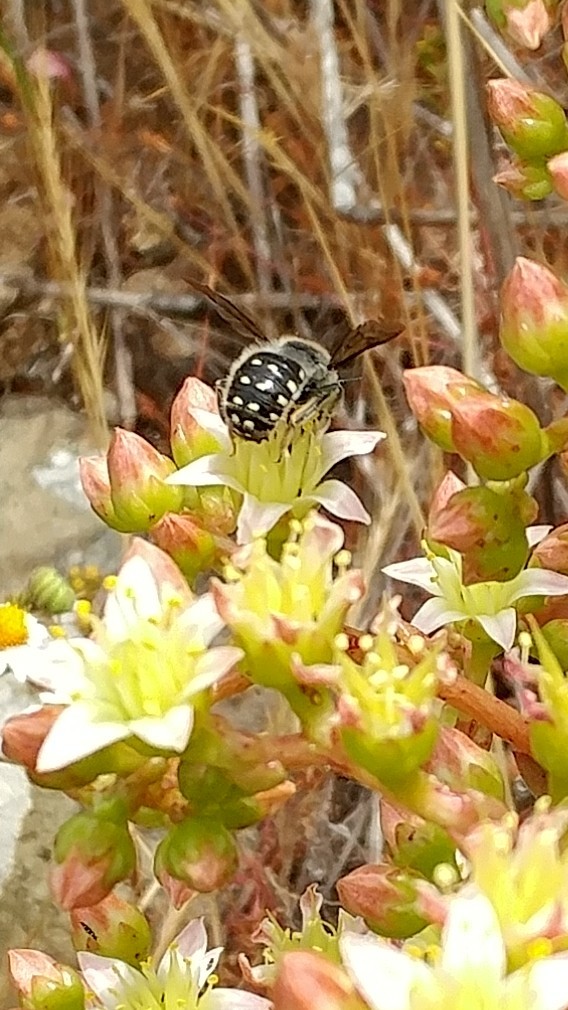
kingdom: Animalia
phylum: Arthropoda
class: Insecta
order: Hymenoptera
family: Megachilidae
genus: Anthidium
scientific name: Anthidium collectum
